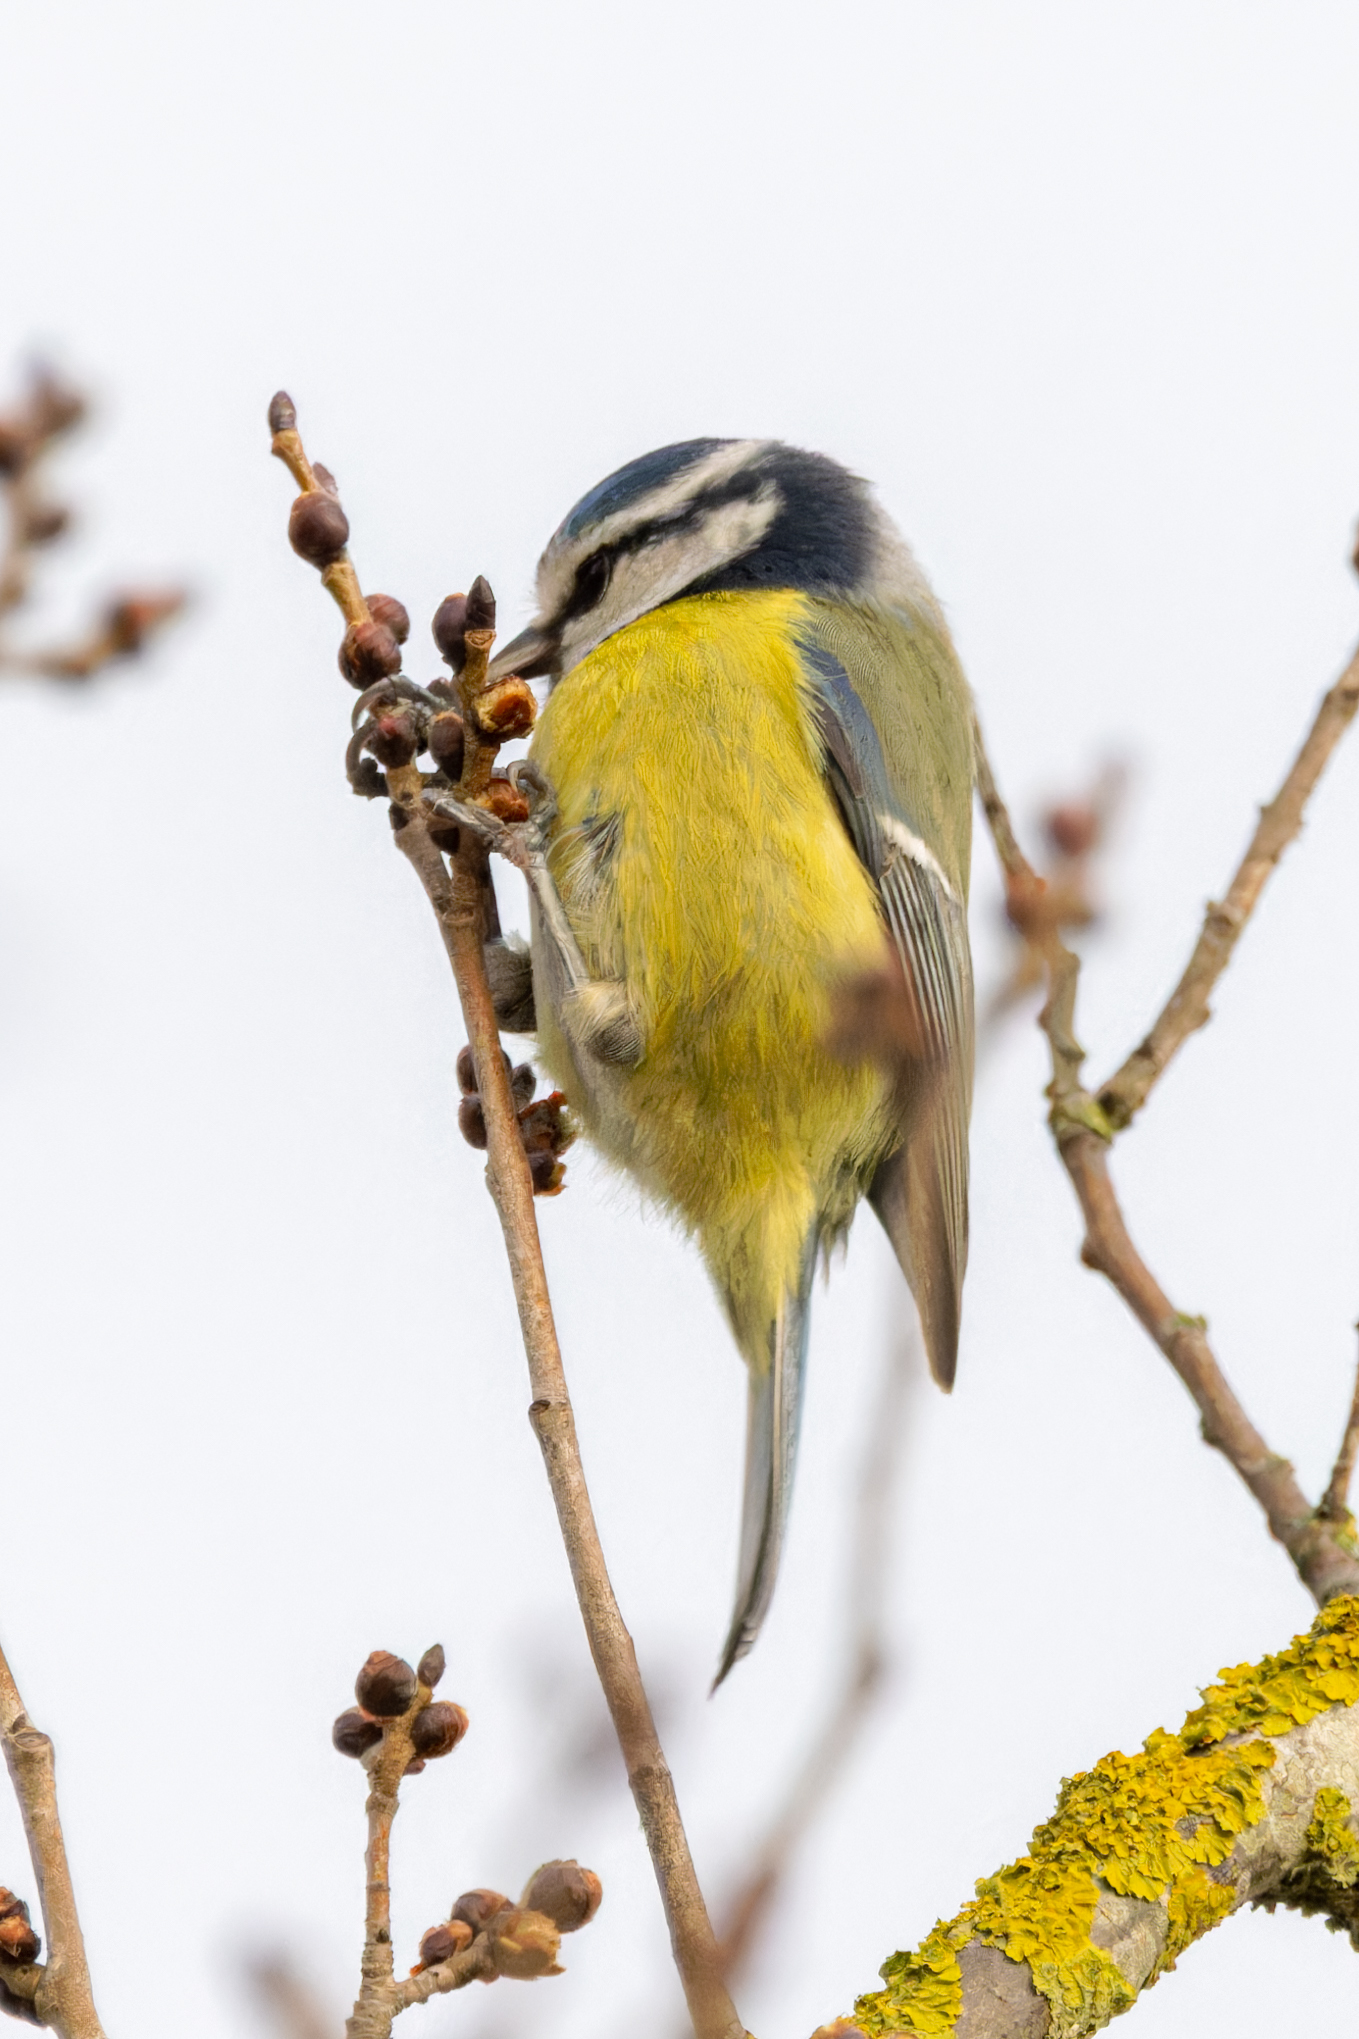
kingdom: Animalia
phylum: Chordata
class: Aves
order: Passeriformes
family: Paridae
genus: Cyanistes
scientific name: Cyanistes caeruleus
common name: Eurasian blue tit
